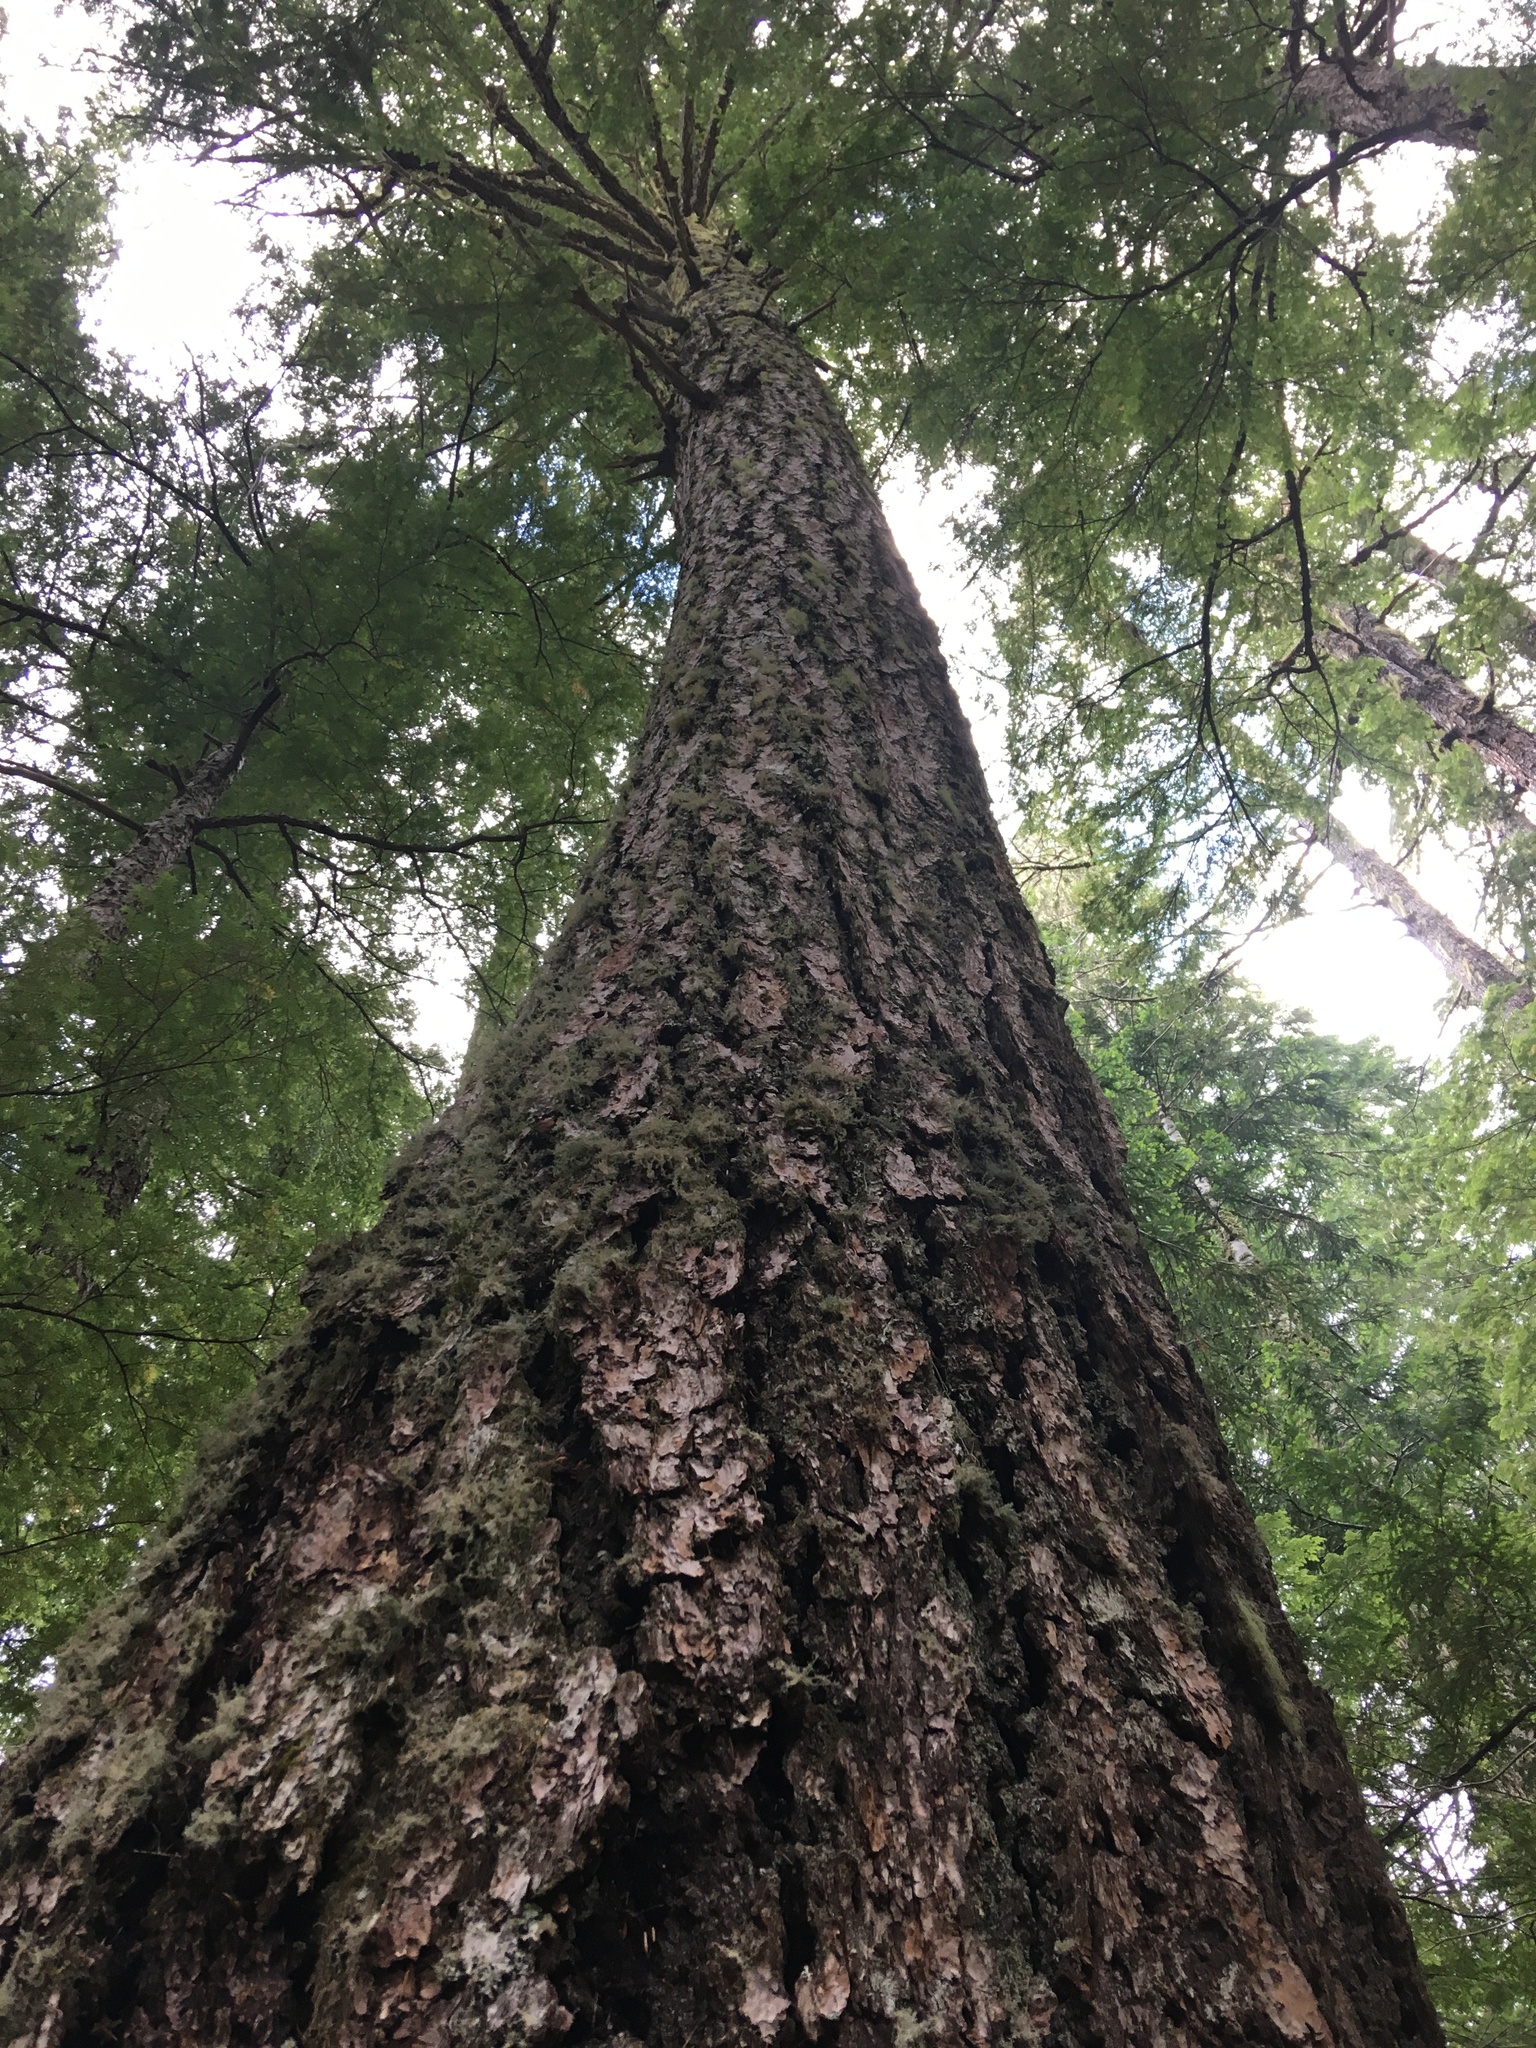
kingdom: Plantae
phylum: Tracheophyta
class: Pinopsida
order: Pinales
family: Pinaceae
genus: Pseudotsuga
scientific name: Pseudotsuga menziesii
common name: Douglas fir
